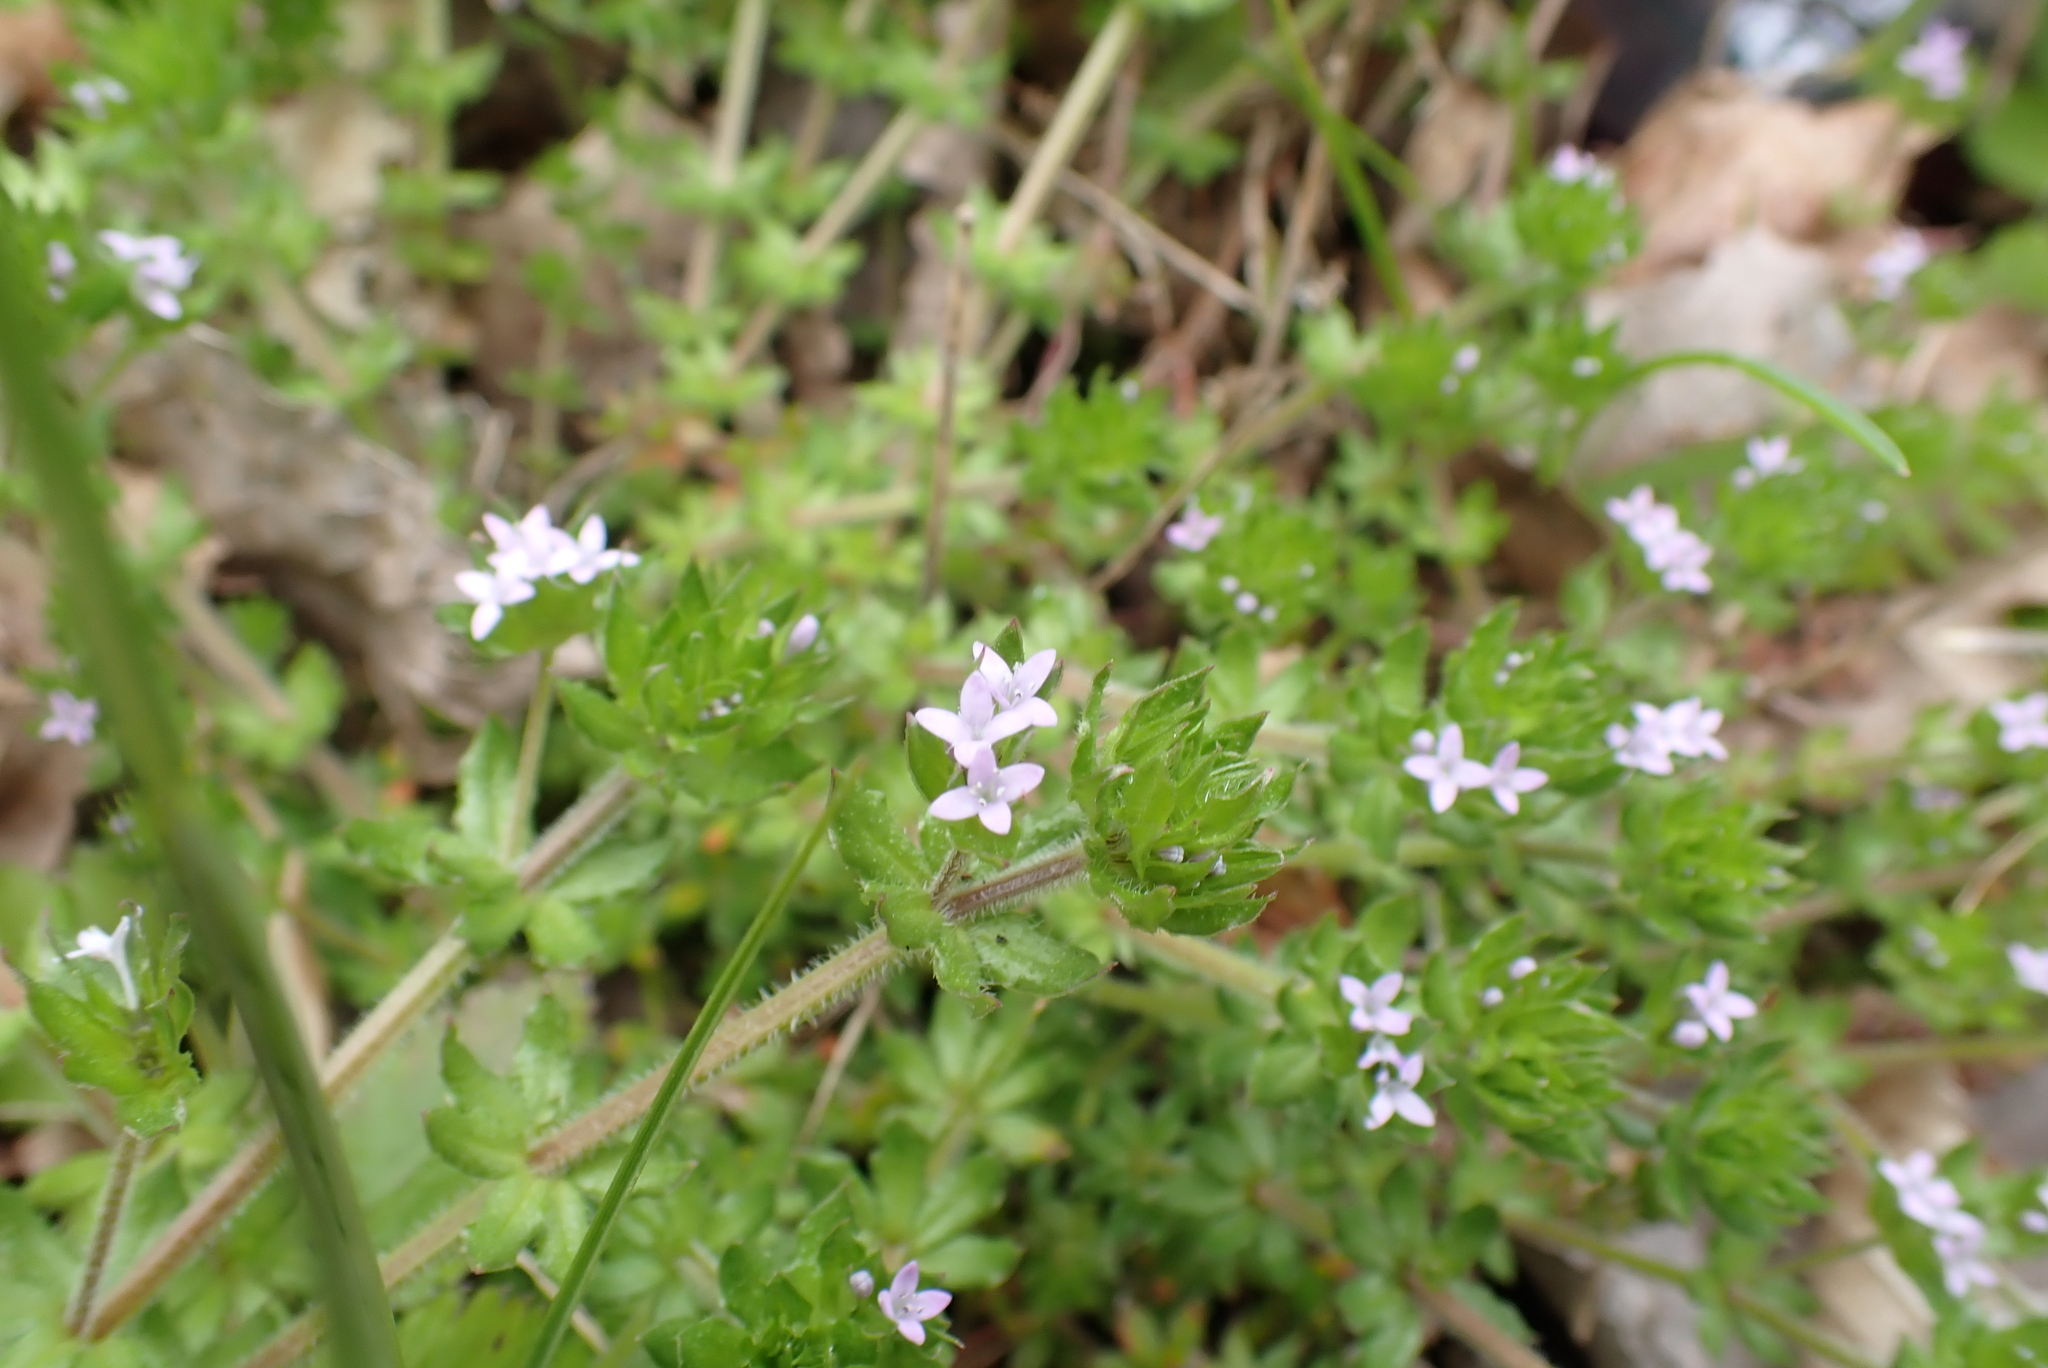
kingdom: Plantae
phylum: Tracheophyta
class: Magnoliopsida
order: Gentianales
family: Rubiaceae
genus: Sherardia
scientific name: Sherardia arvensis
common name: Field madder
